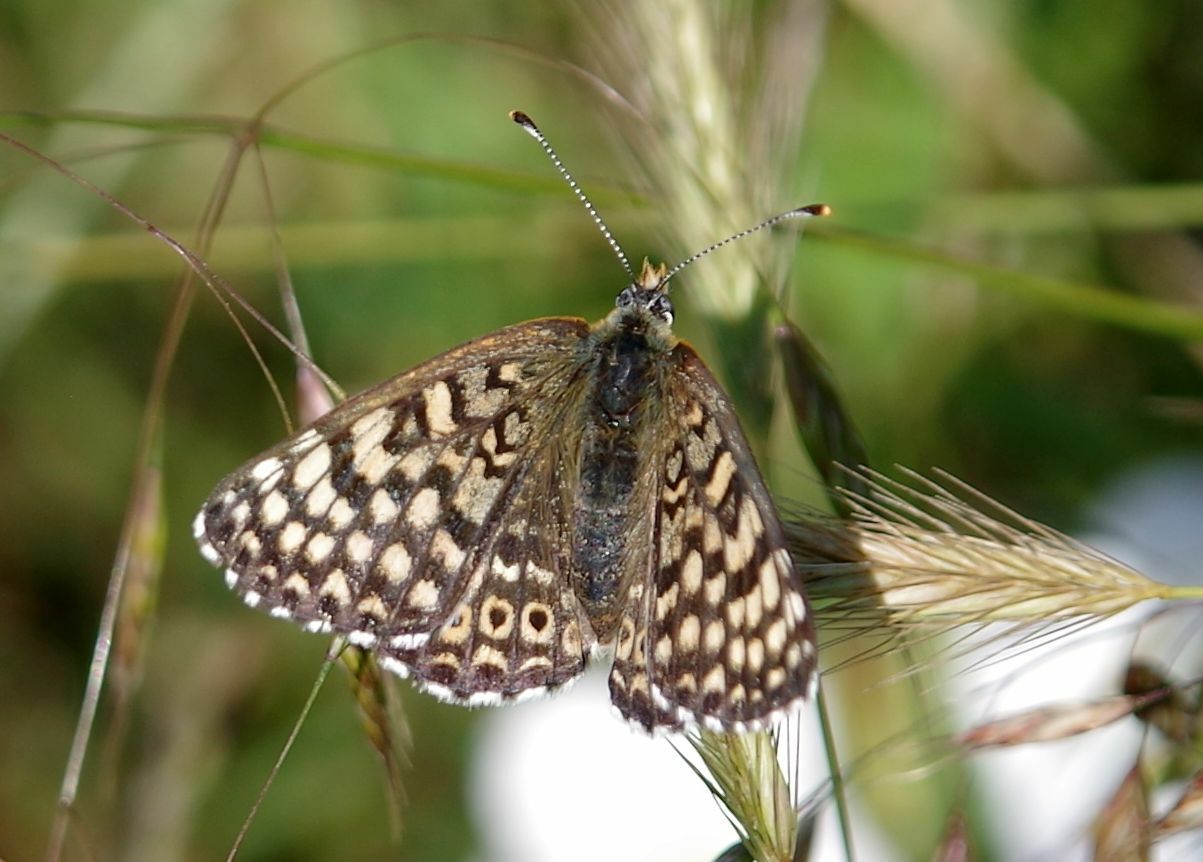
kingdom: Animalia
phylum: Arthropoda
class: Insecta
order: Lepidoptera
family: Nymphalidae
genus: Melitaea
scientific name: Melitaea cinxia
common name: Glanville fritillary
